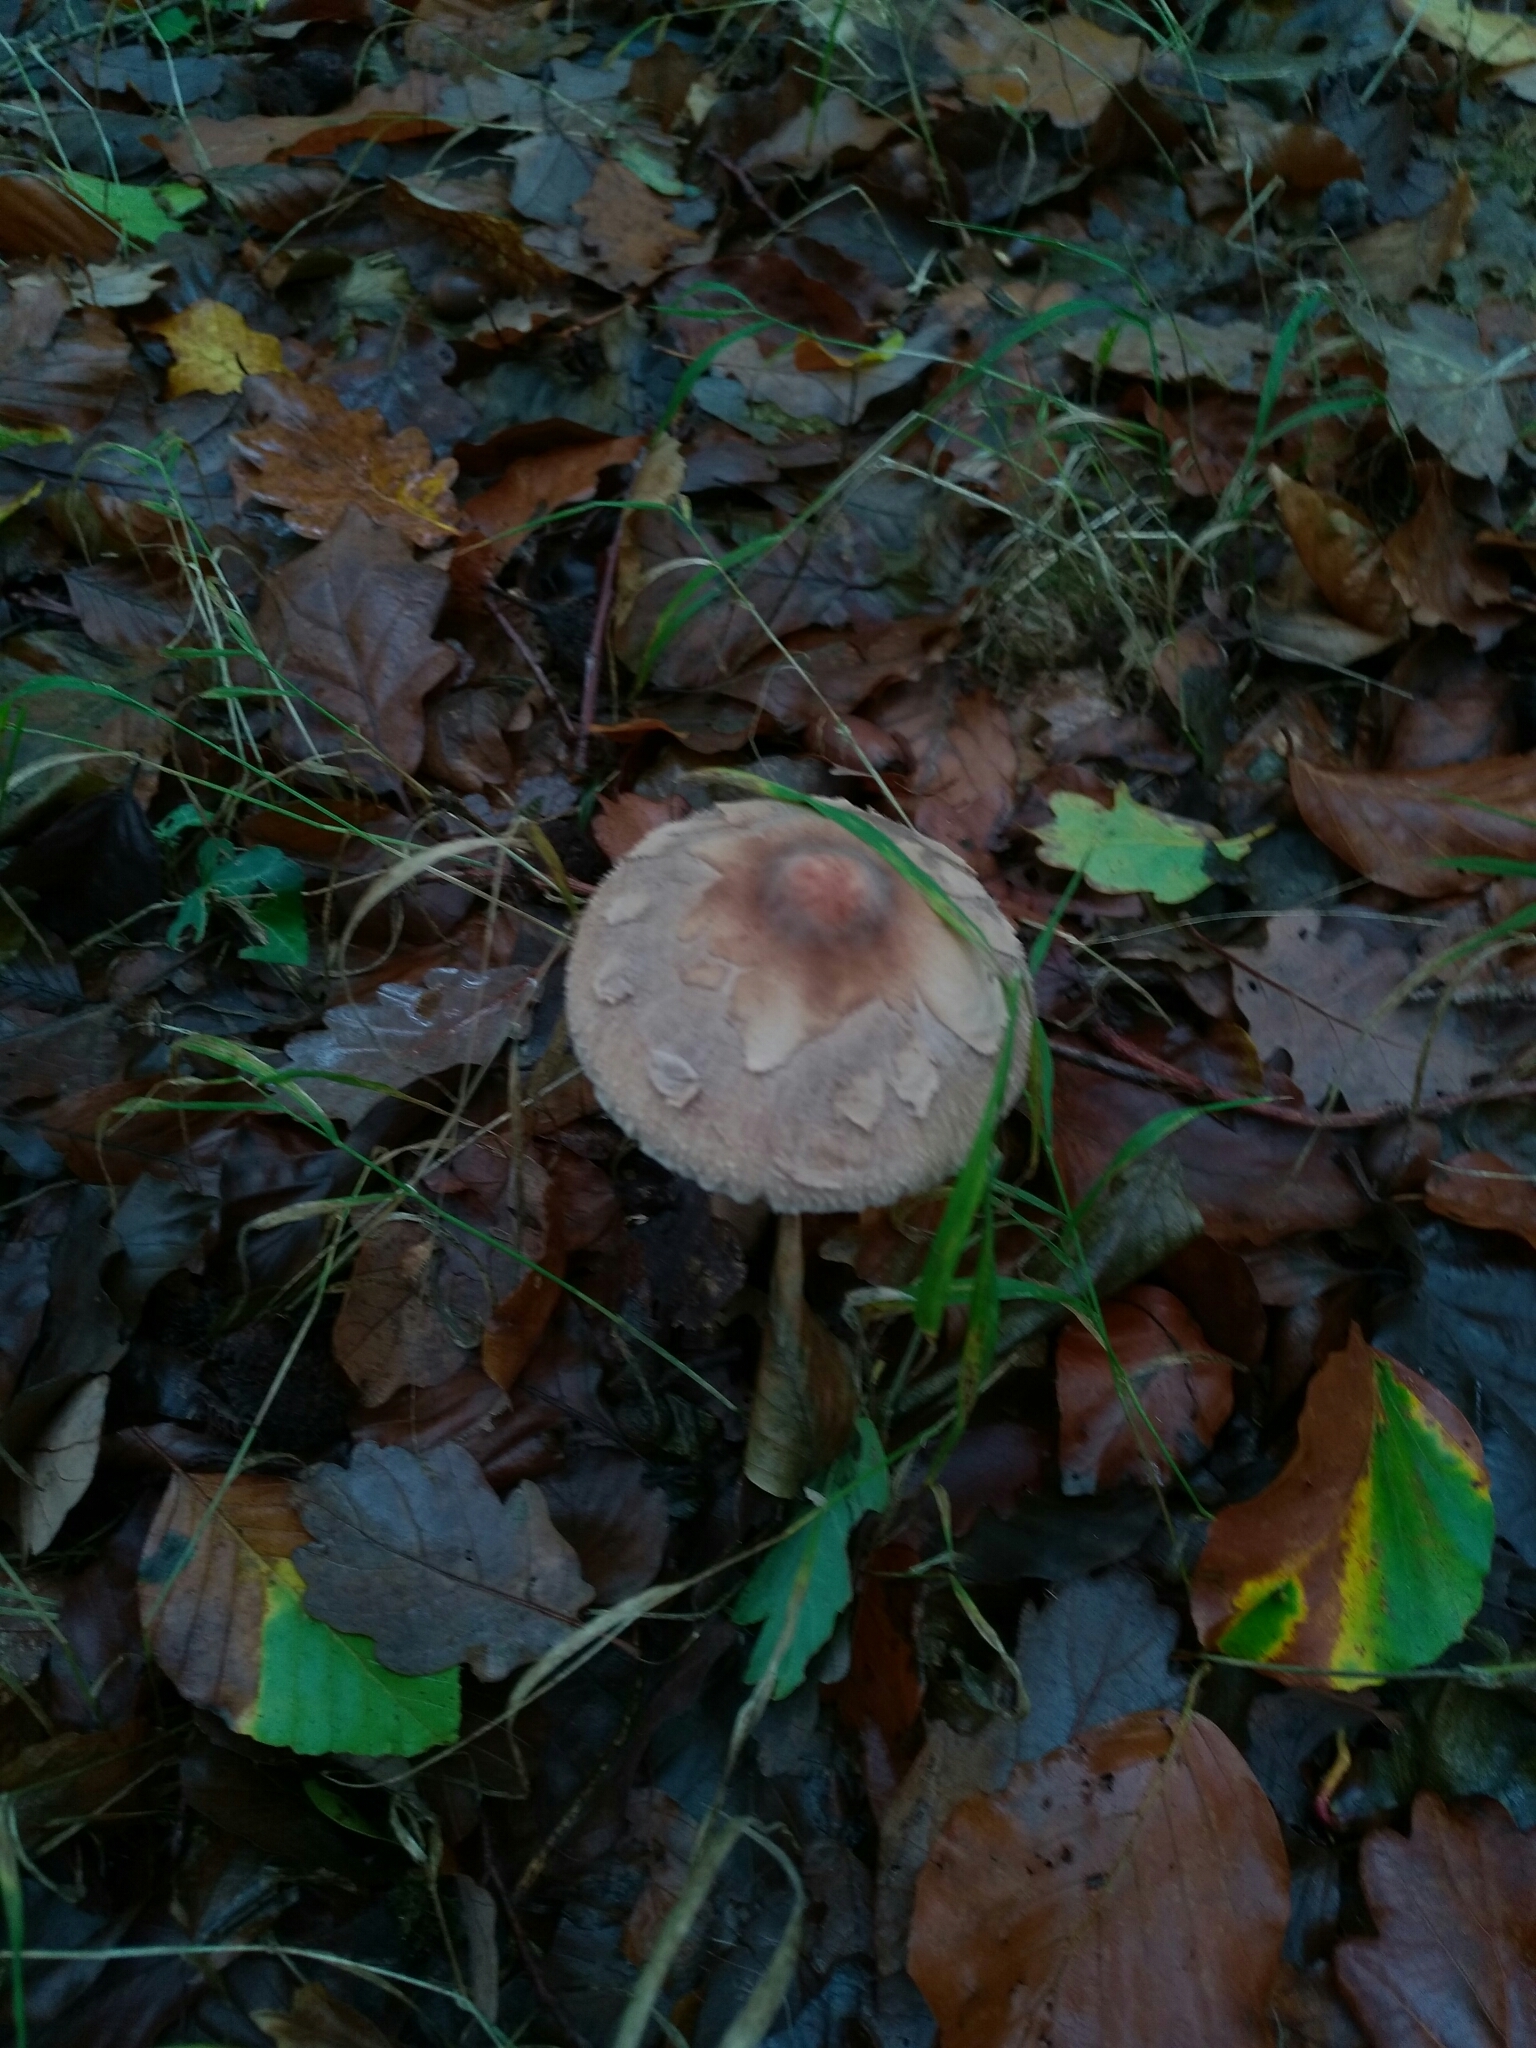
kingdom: Fungi
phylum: Basidiomycota
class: Agaricomycetes
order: Agaricales
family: Agaricaceae
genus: Macrolepiota
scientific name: Macrolepiota procera
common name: Parasol
